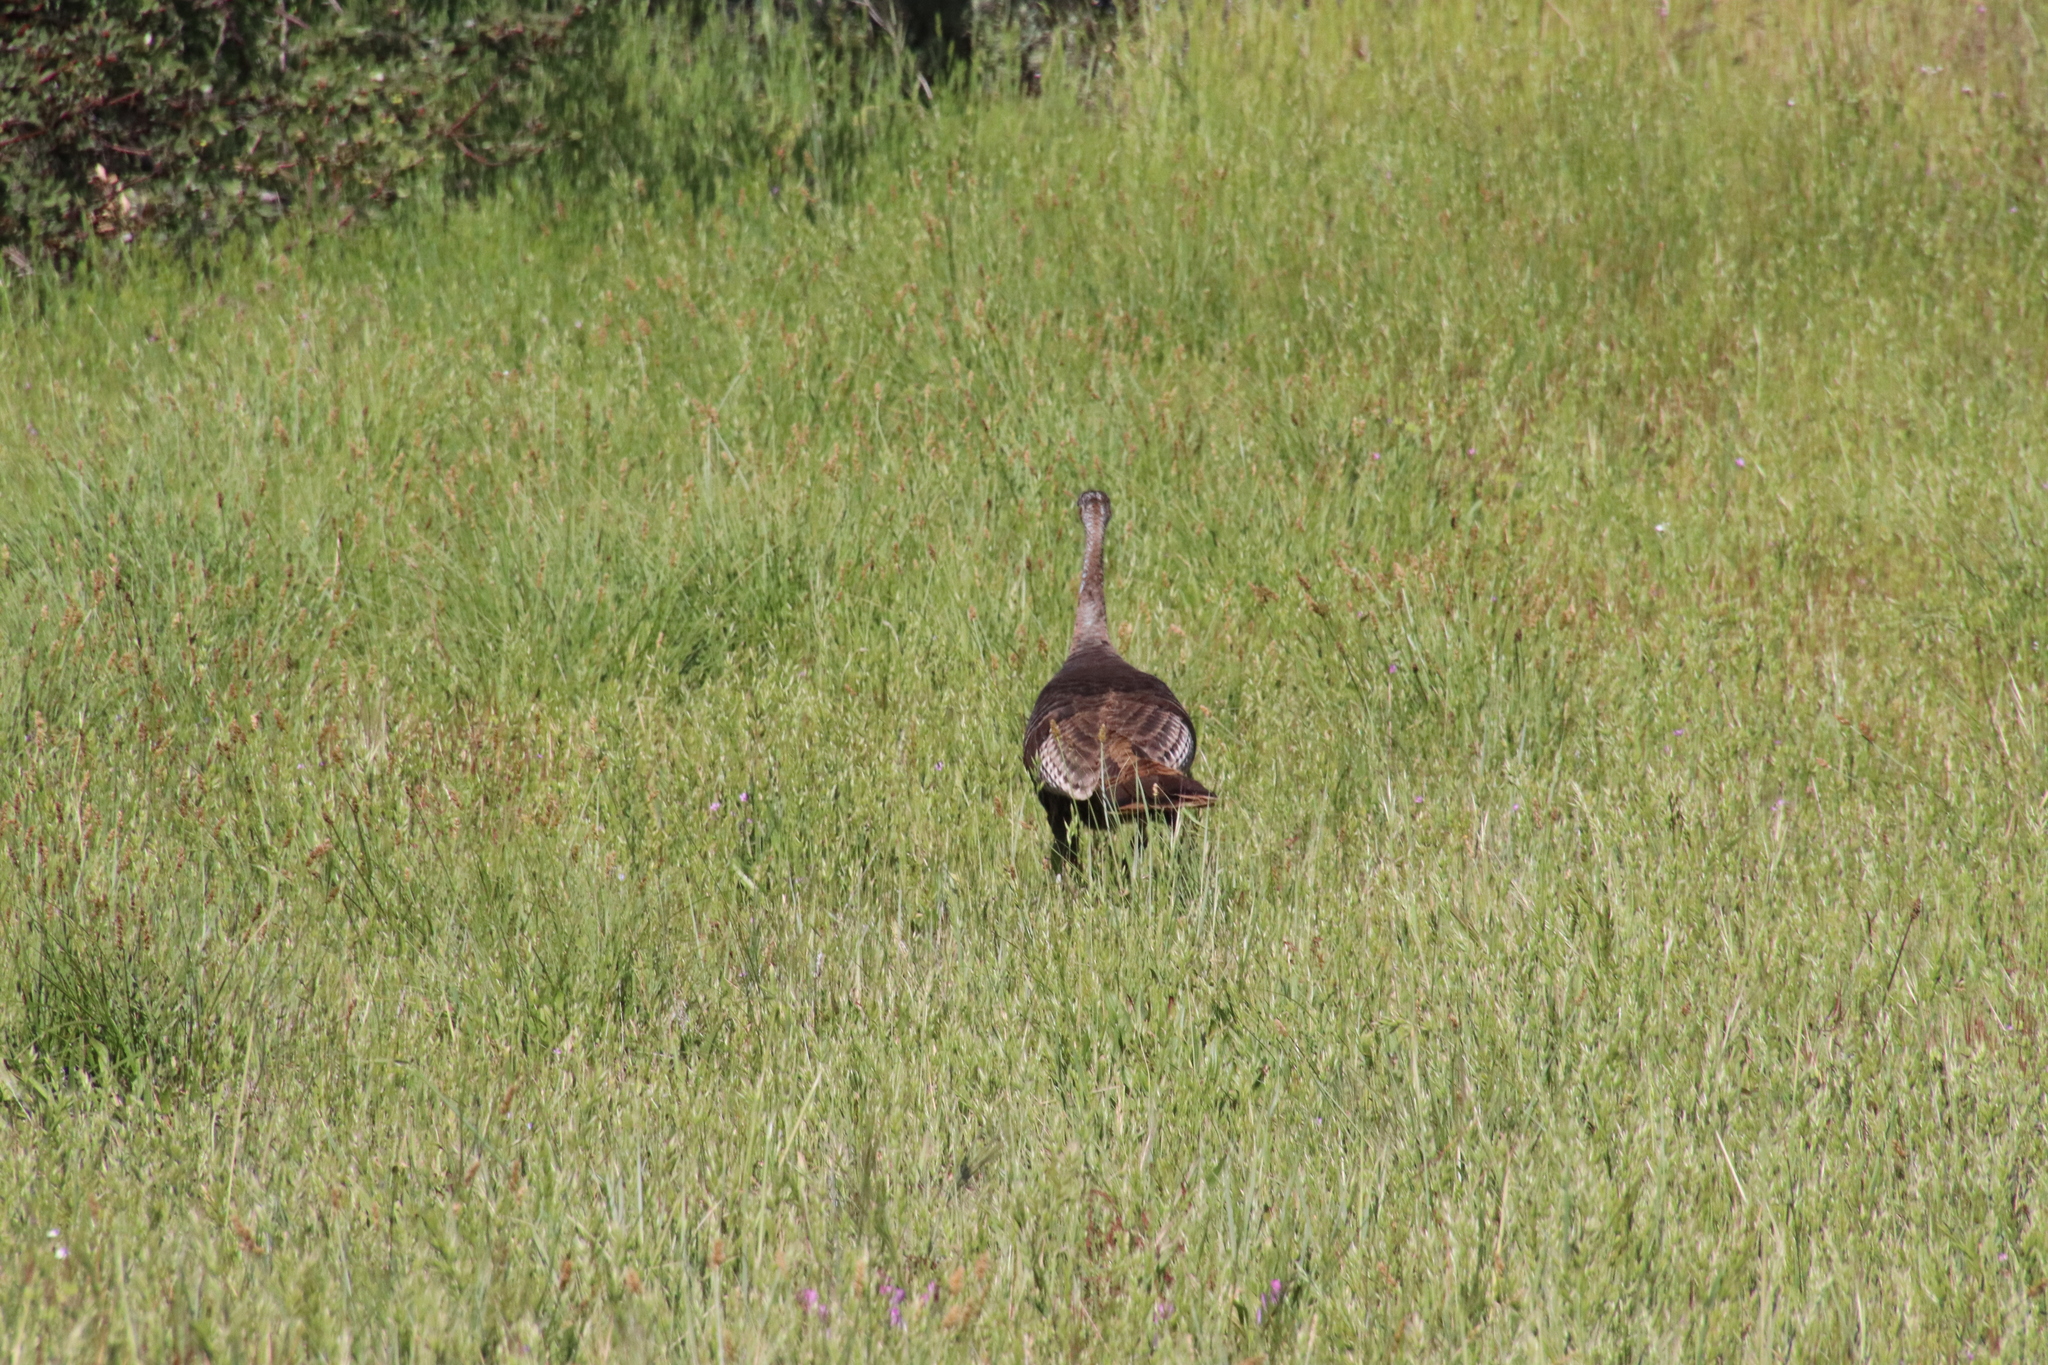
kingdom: Animalia
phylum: Chordata
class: Aves
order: Galliformes
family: Phasianidae
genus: Meleagris
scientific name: Meleagris gallopavo
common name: Wild turkey
